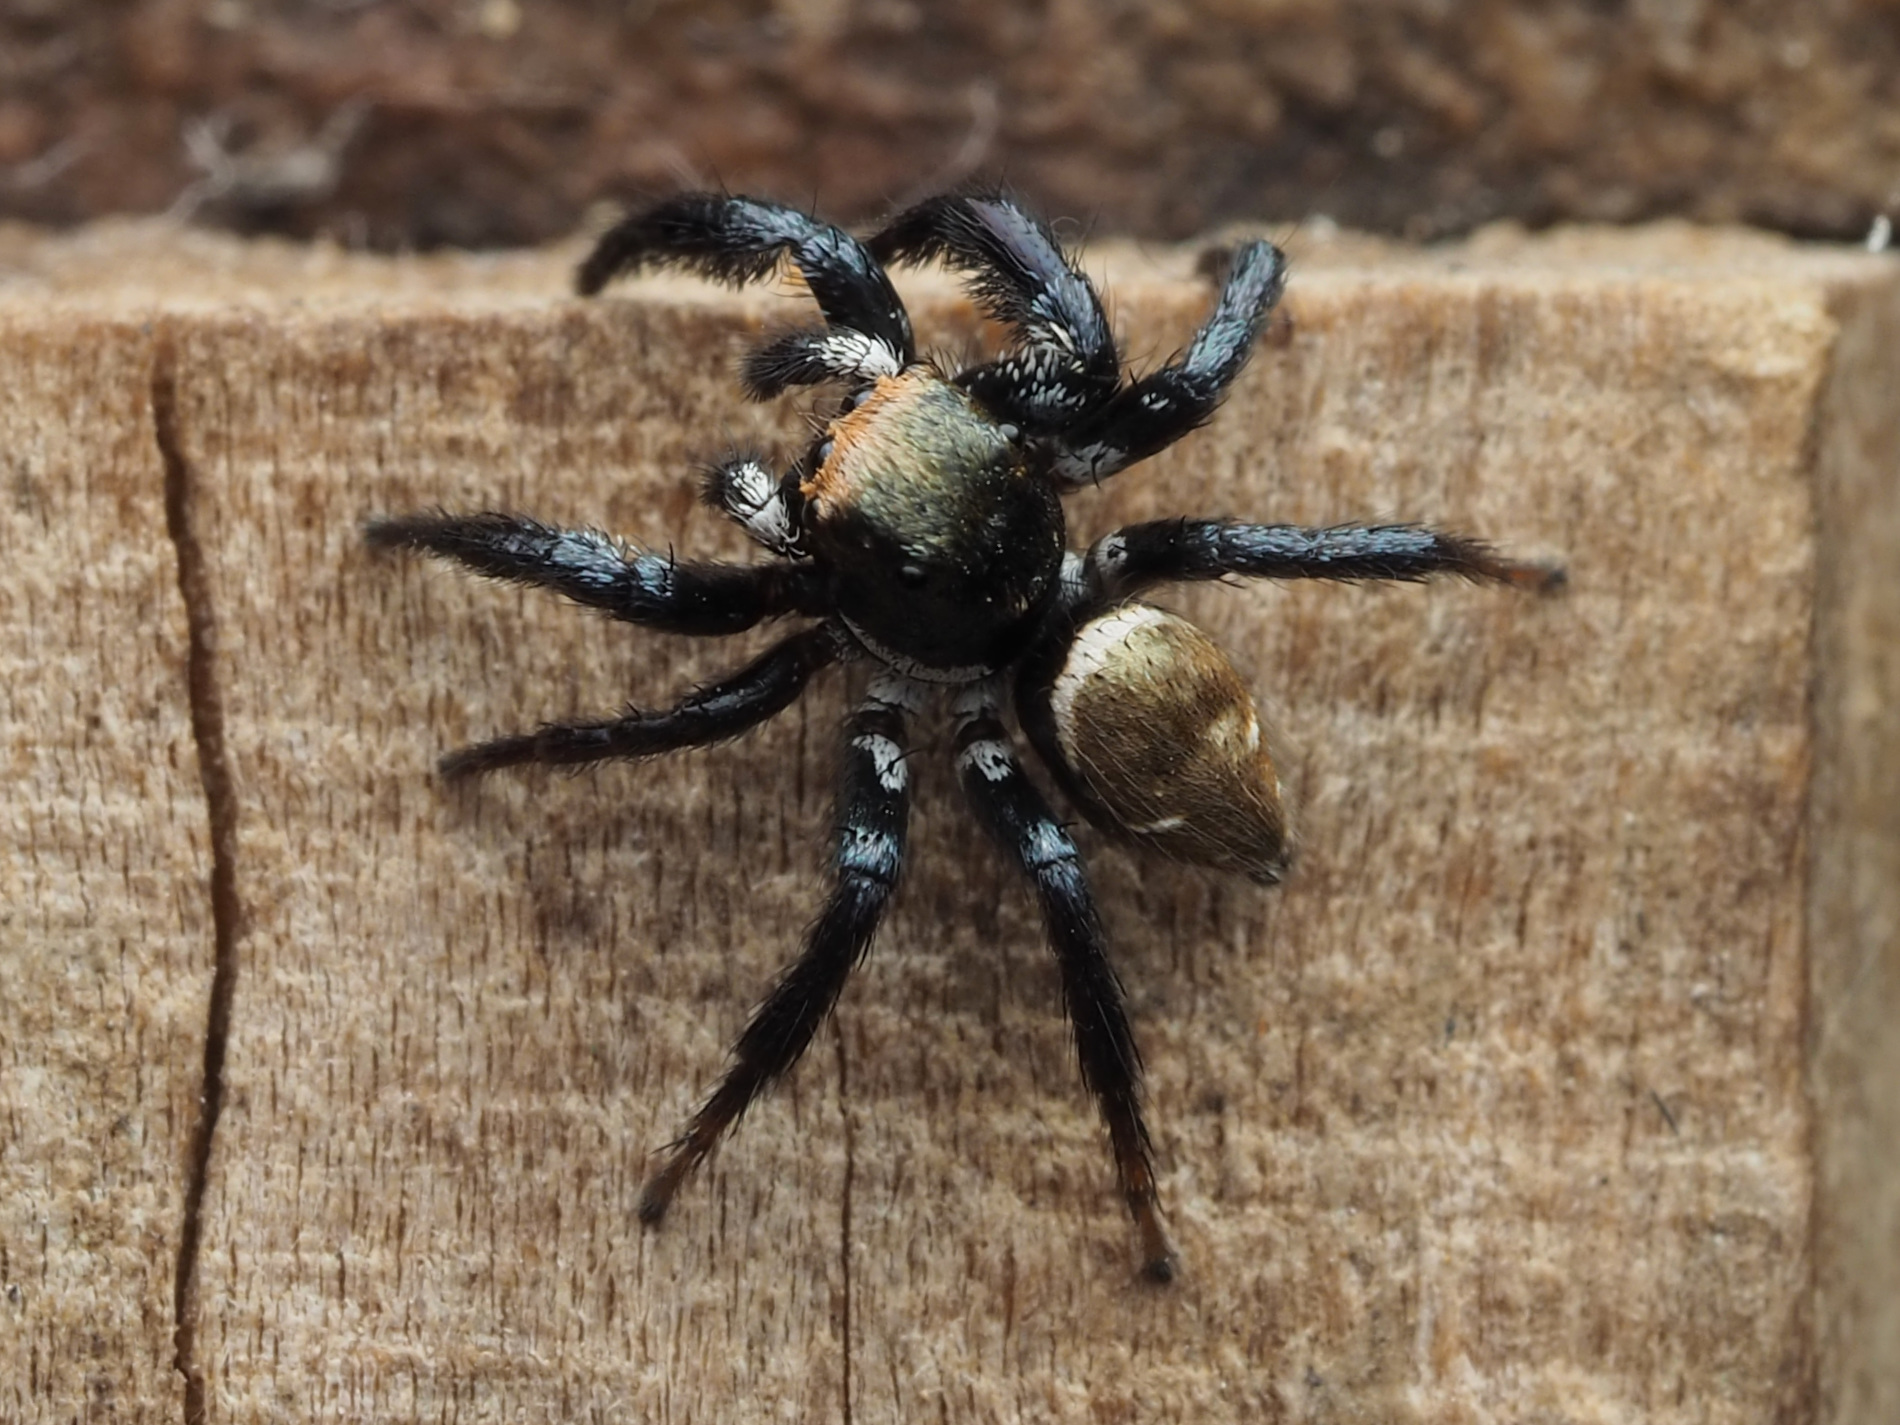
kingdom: Animalia
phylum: Arthropoda
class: Arachnida
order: Araneae
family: Salticidae
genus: Corythalia
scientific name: Corythalia parvula
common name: Jumping spiders
